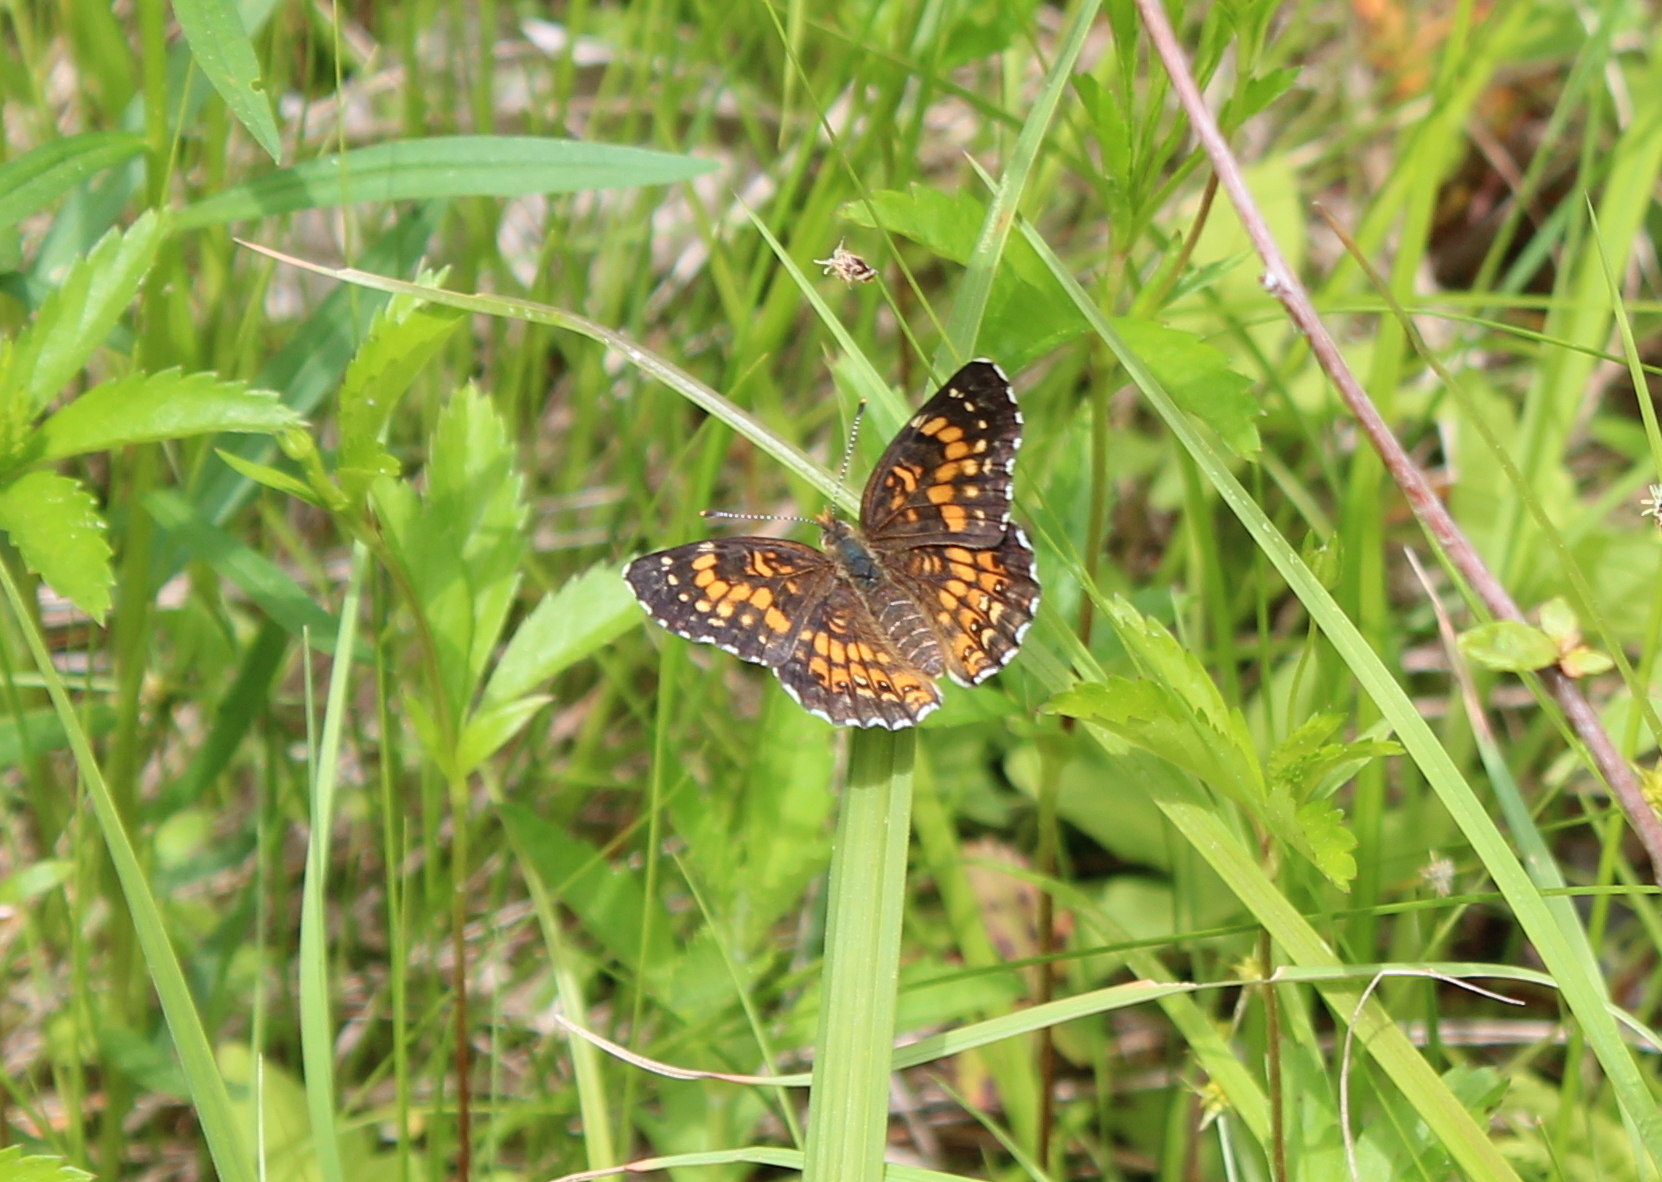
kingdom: Animalia
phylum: Arthropoda
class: Insecta
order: Lepidoptera
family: Nymphalidae
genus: Chlosyne
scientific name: Chlosyne harrisii
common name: Harris's checkerspot
